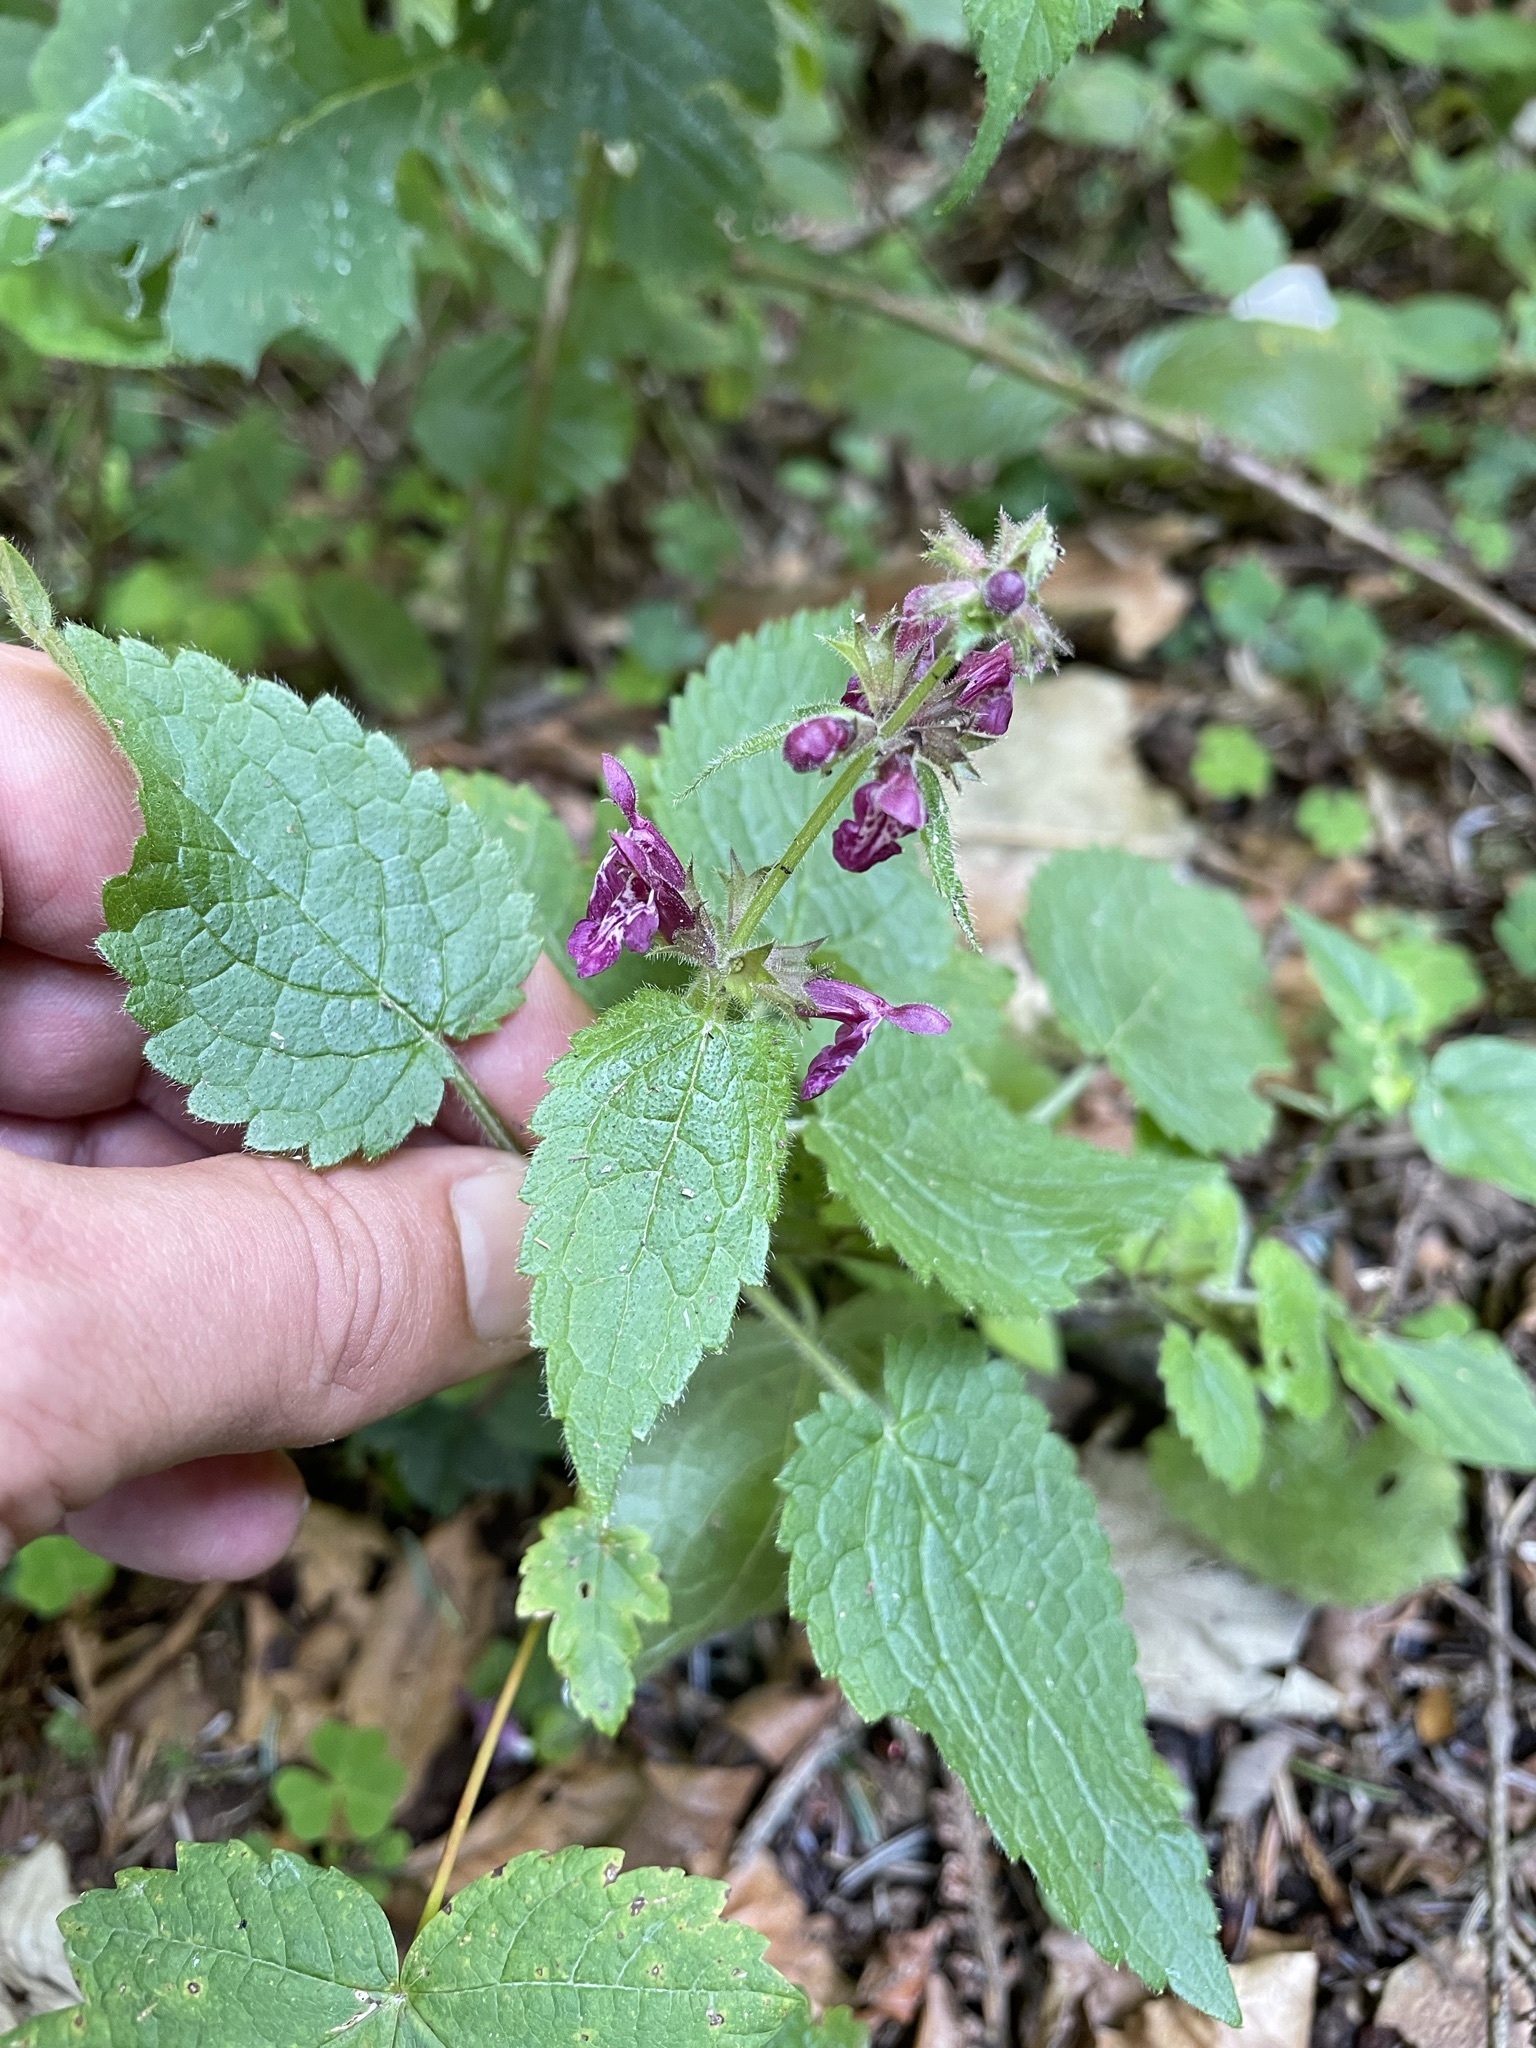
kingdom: Plantae
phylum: Tracheophyta
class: Magnoliopsida
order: Lamiales
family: Lamiaceae
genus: Stachys
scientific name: Stachys sylvatica
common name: Hedge woundwort
